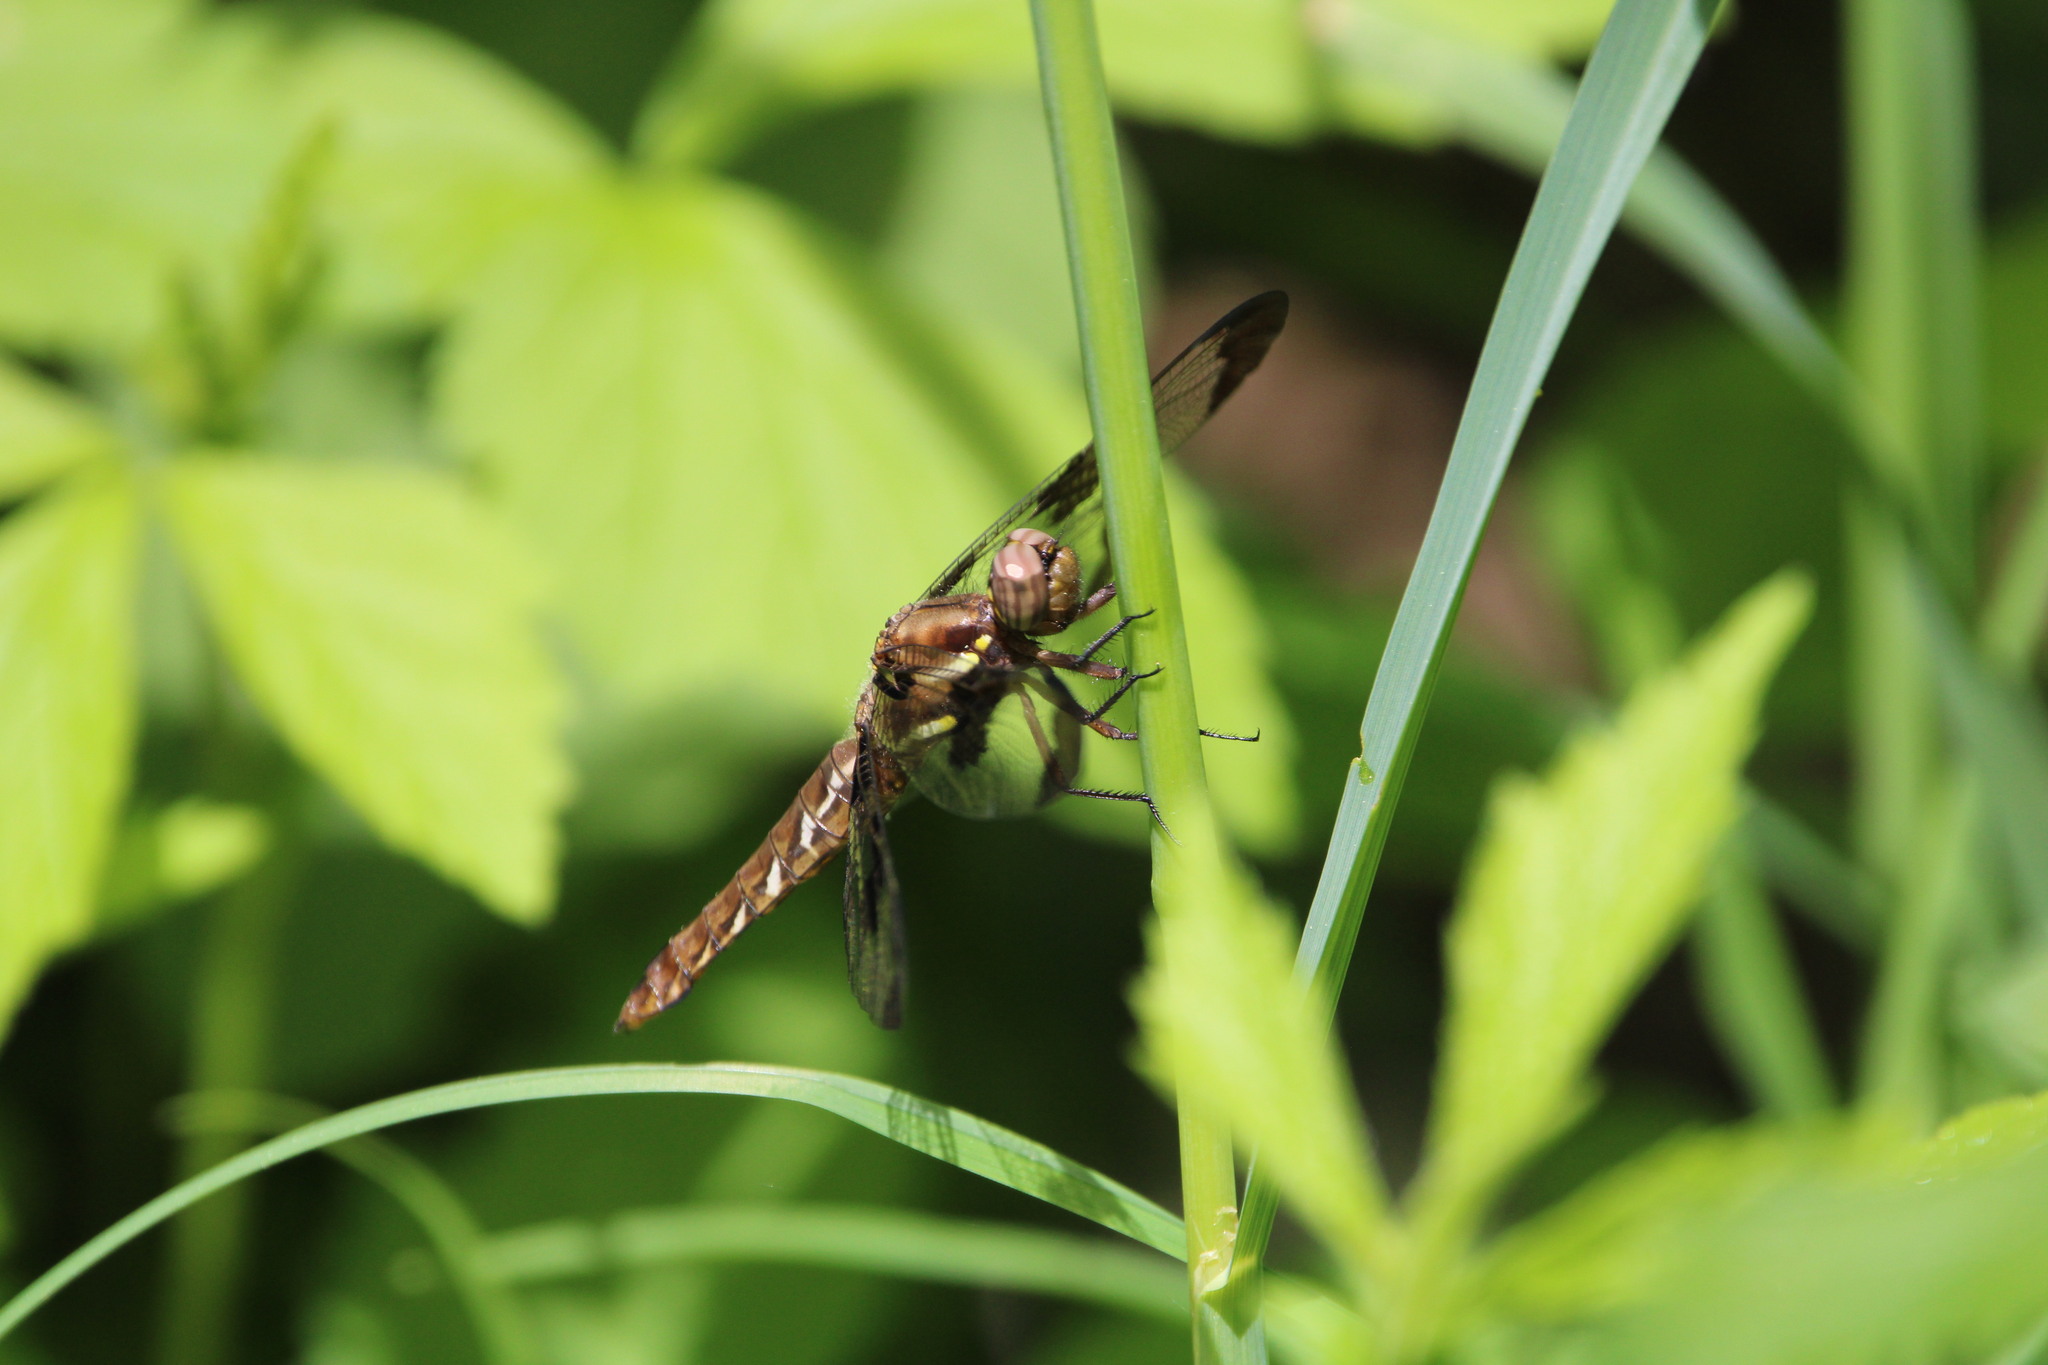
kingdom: Animalia
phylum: Arthropoda
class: Insecta
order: Odonata
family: Libellulidae
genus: Plathemis
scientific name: Plathemis lydia
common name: Common whitetail
